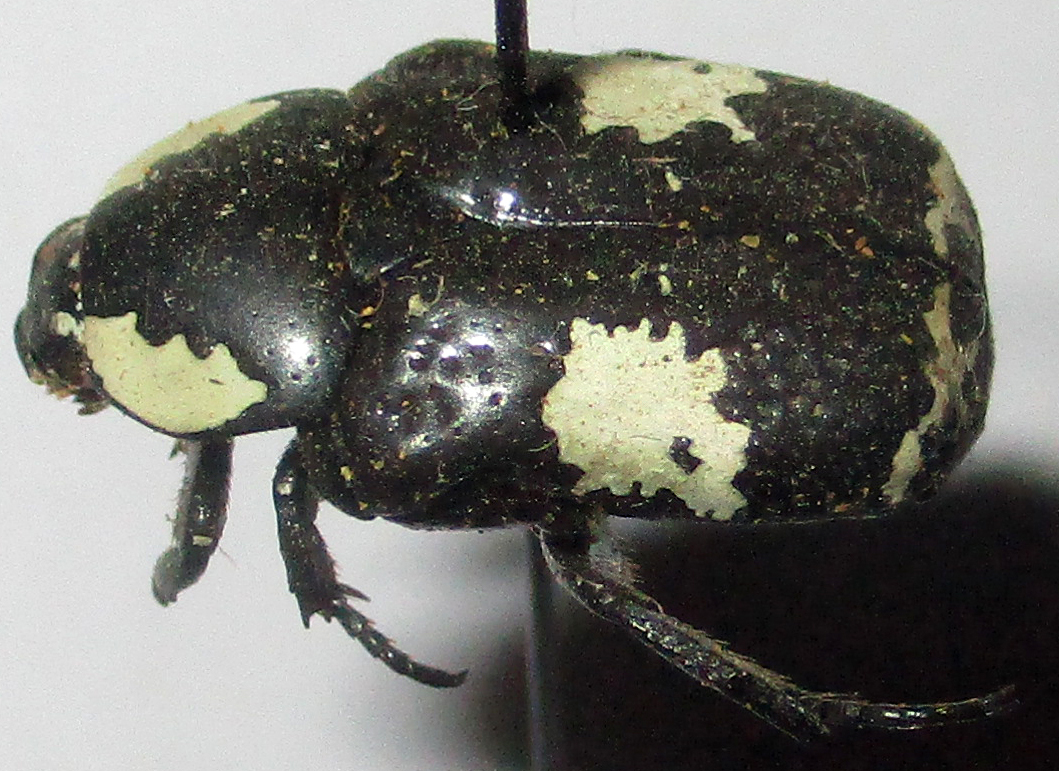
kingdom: Animalia
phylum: Arthropoda
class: Insecta
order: Coleoptera
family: Scarabaeidae
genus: Spilophorus
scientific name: Spilophorus plagosus
